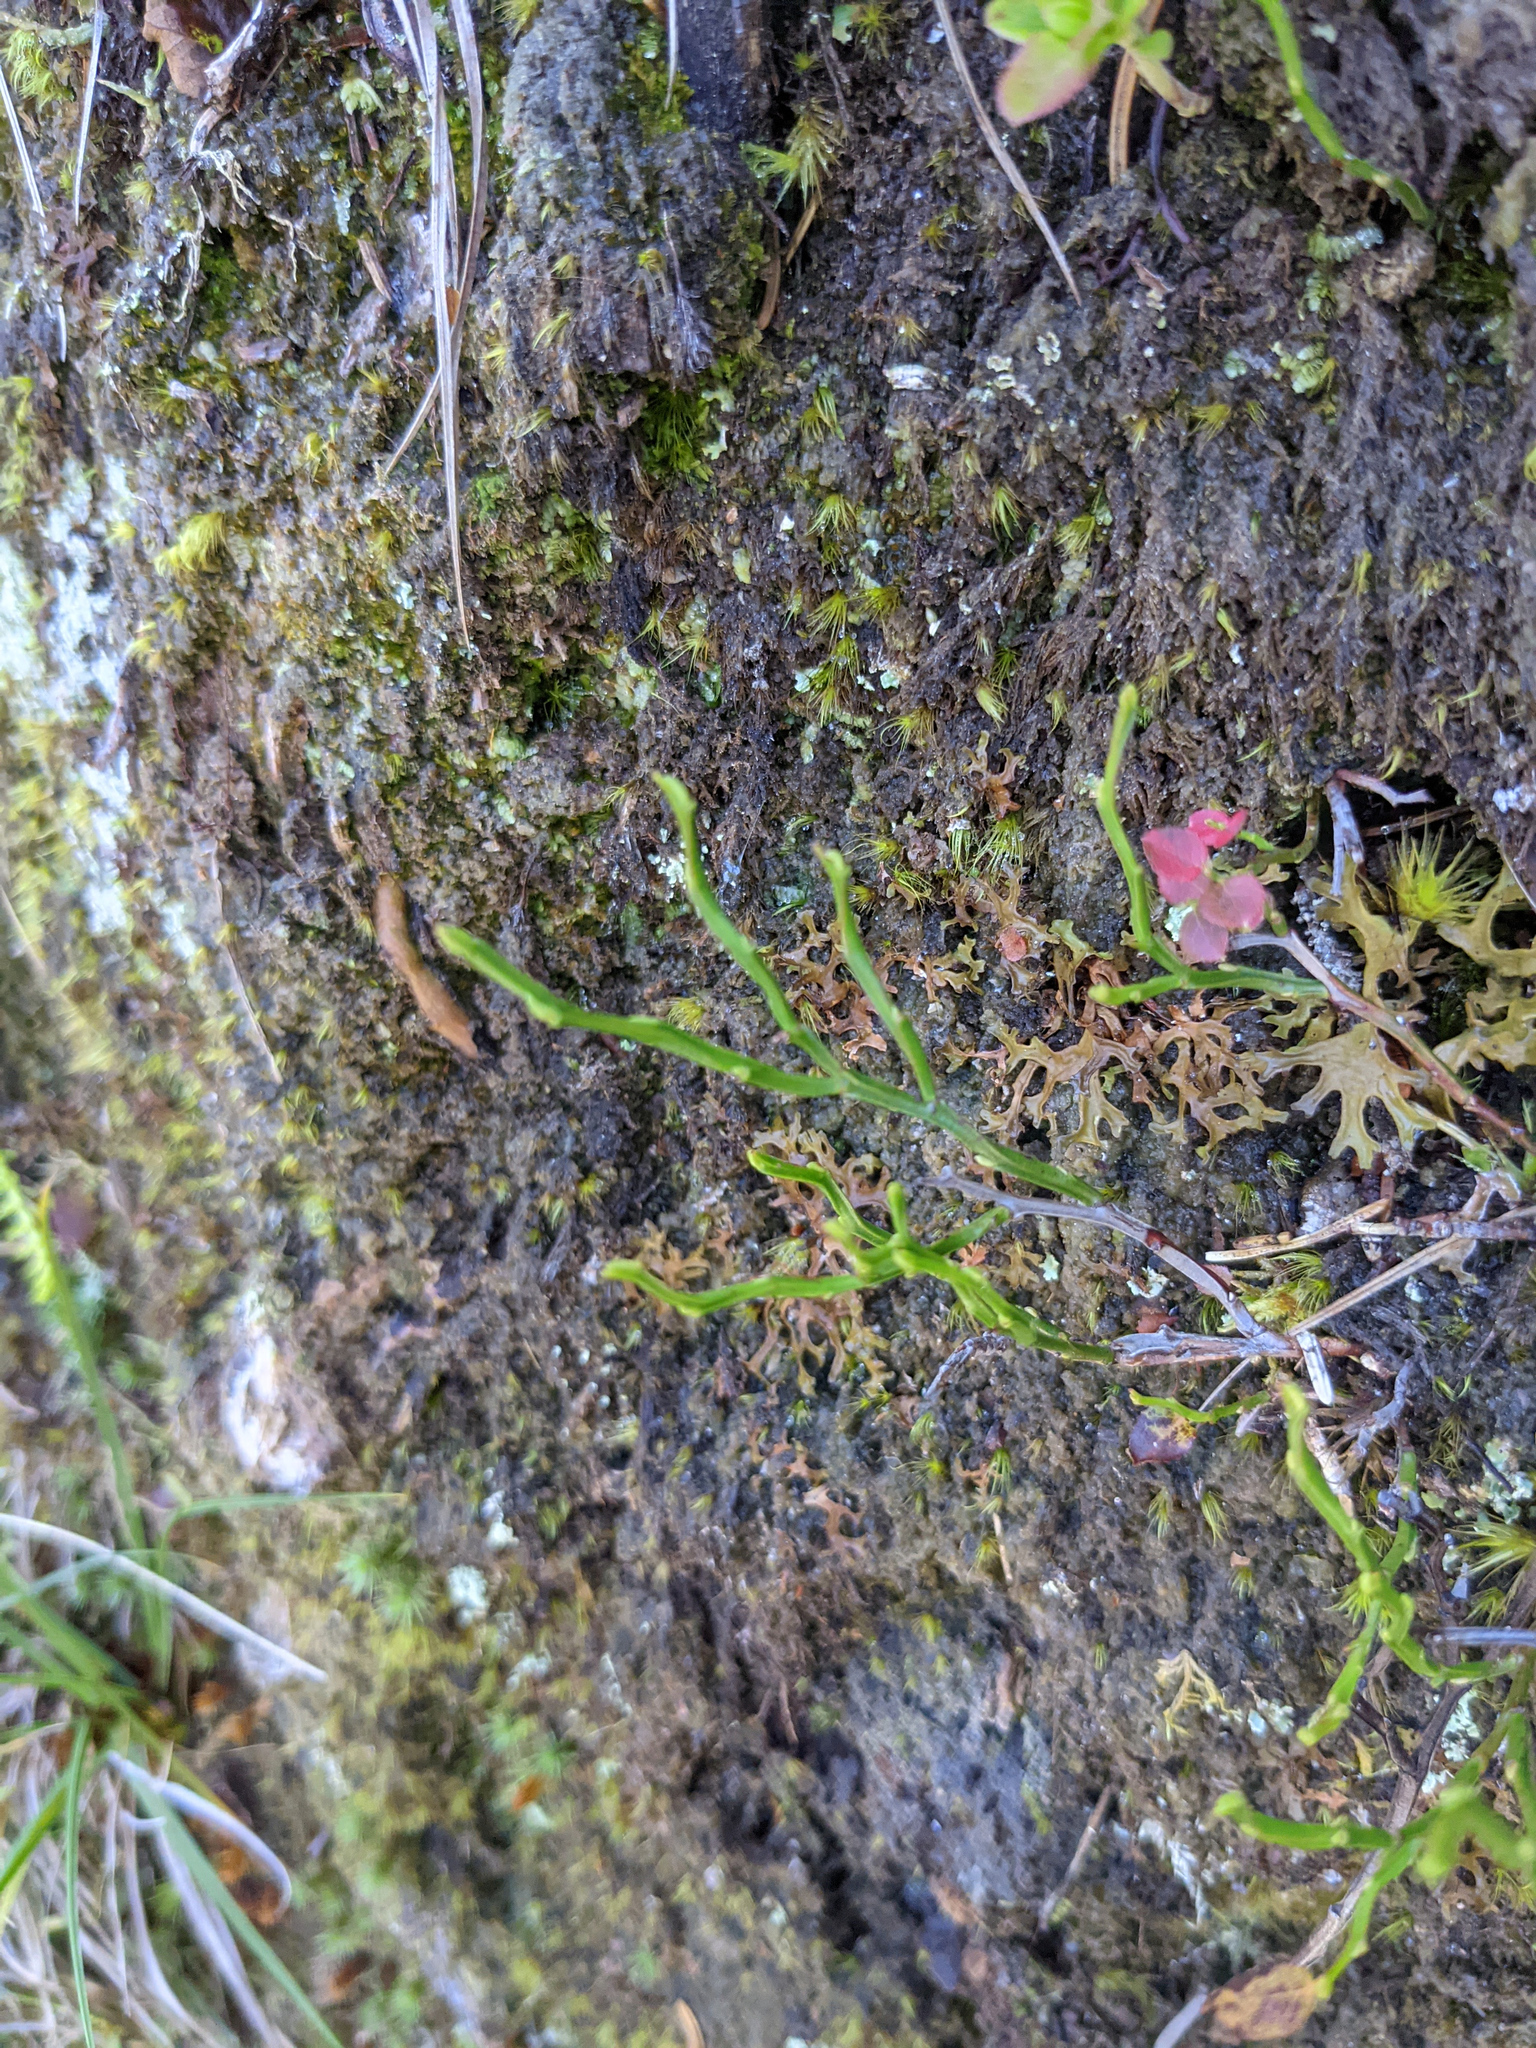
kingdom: Plantae
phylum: Tracheophyta
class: Magnoliopsida
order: Ericales
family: Ericaceae
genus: Vaccinium
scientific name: Vaccinium myrtillus
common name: Bilberry
